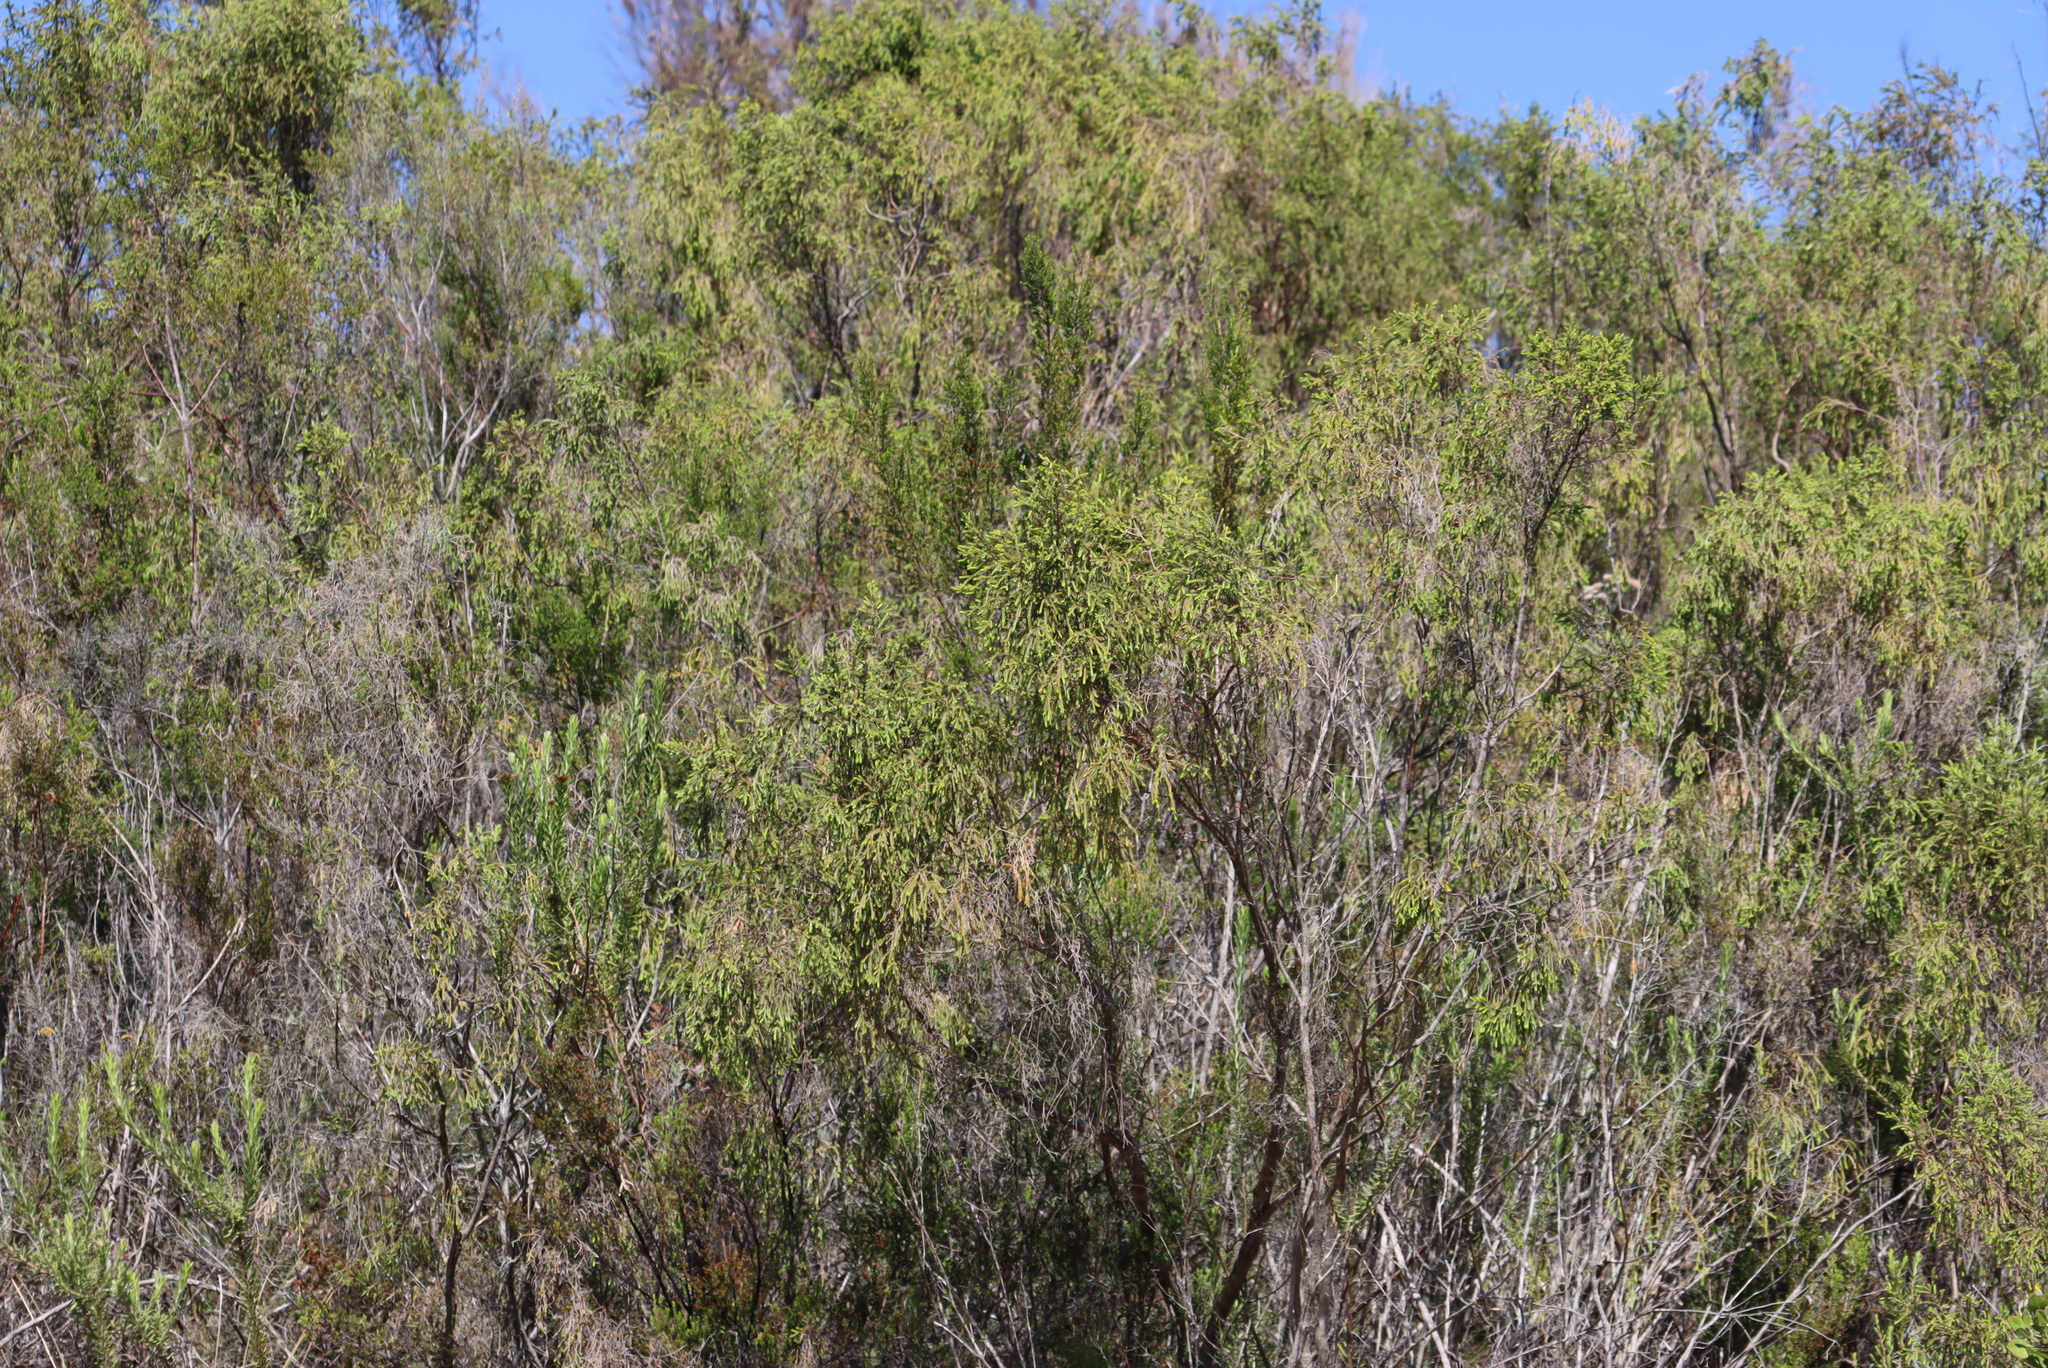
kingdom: Plantae
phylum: Tracheophyta
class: Magnoliopsida
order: Malvales
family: Thymelaeaceae
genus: Passerina
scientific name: Passerina falcifolia
